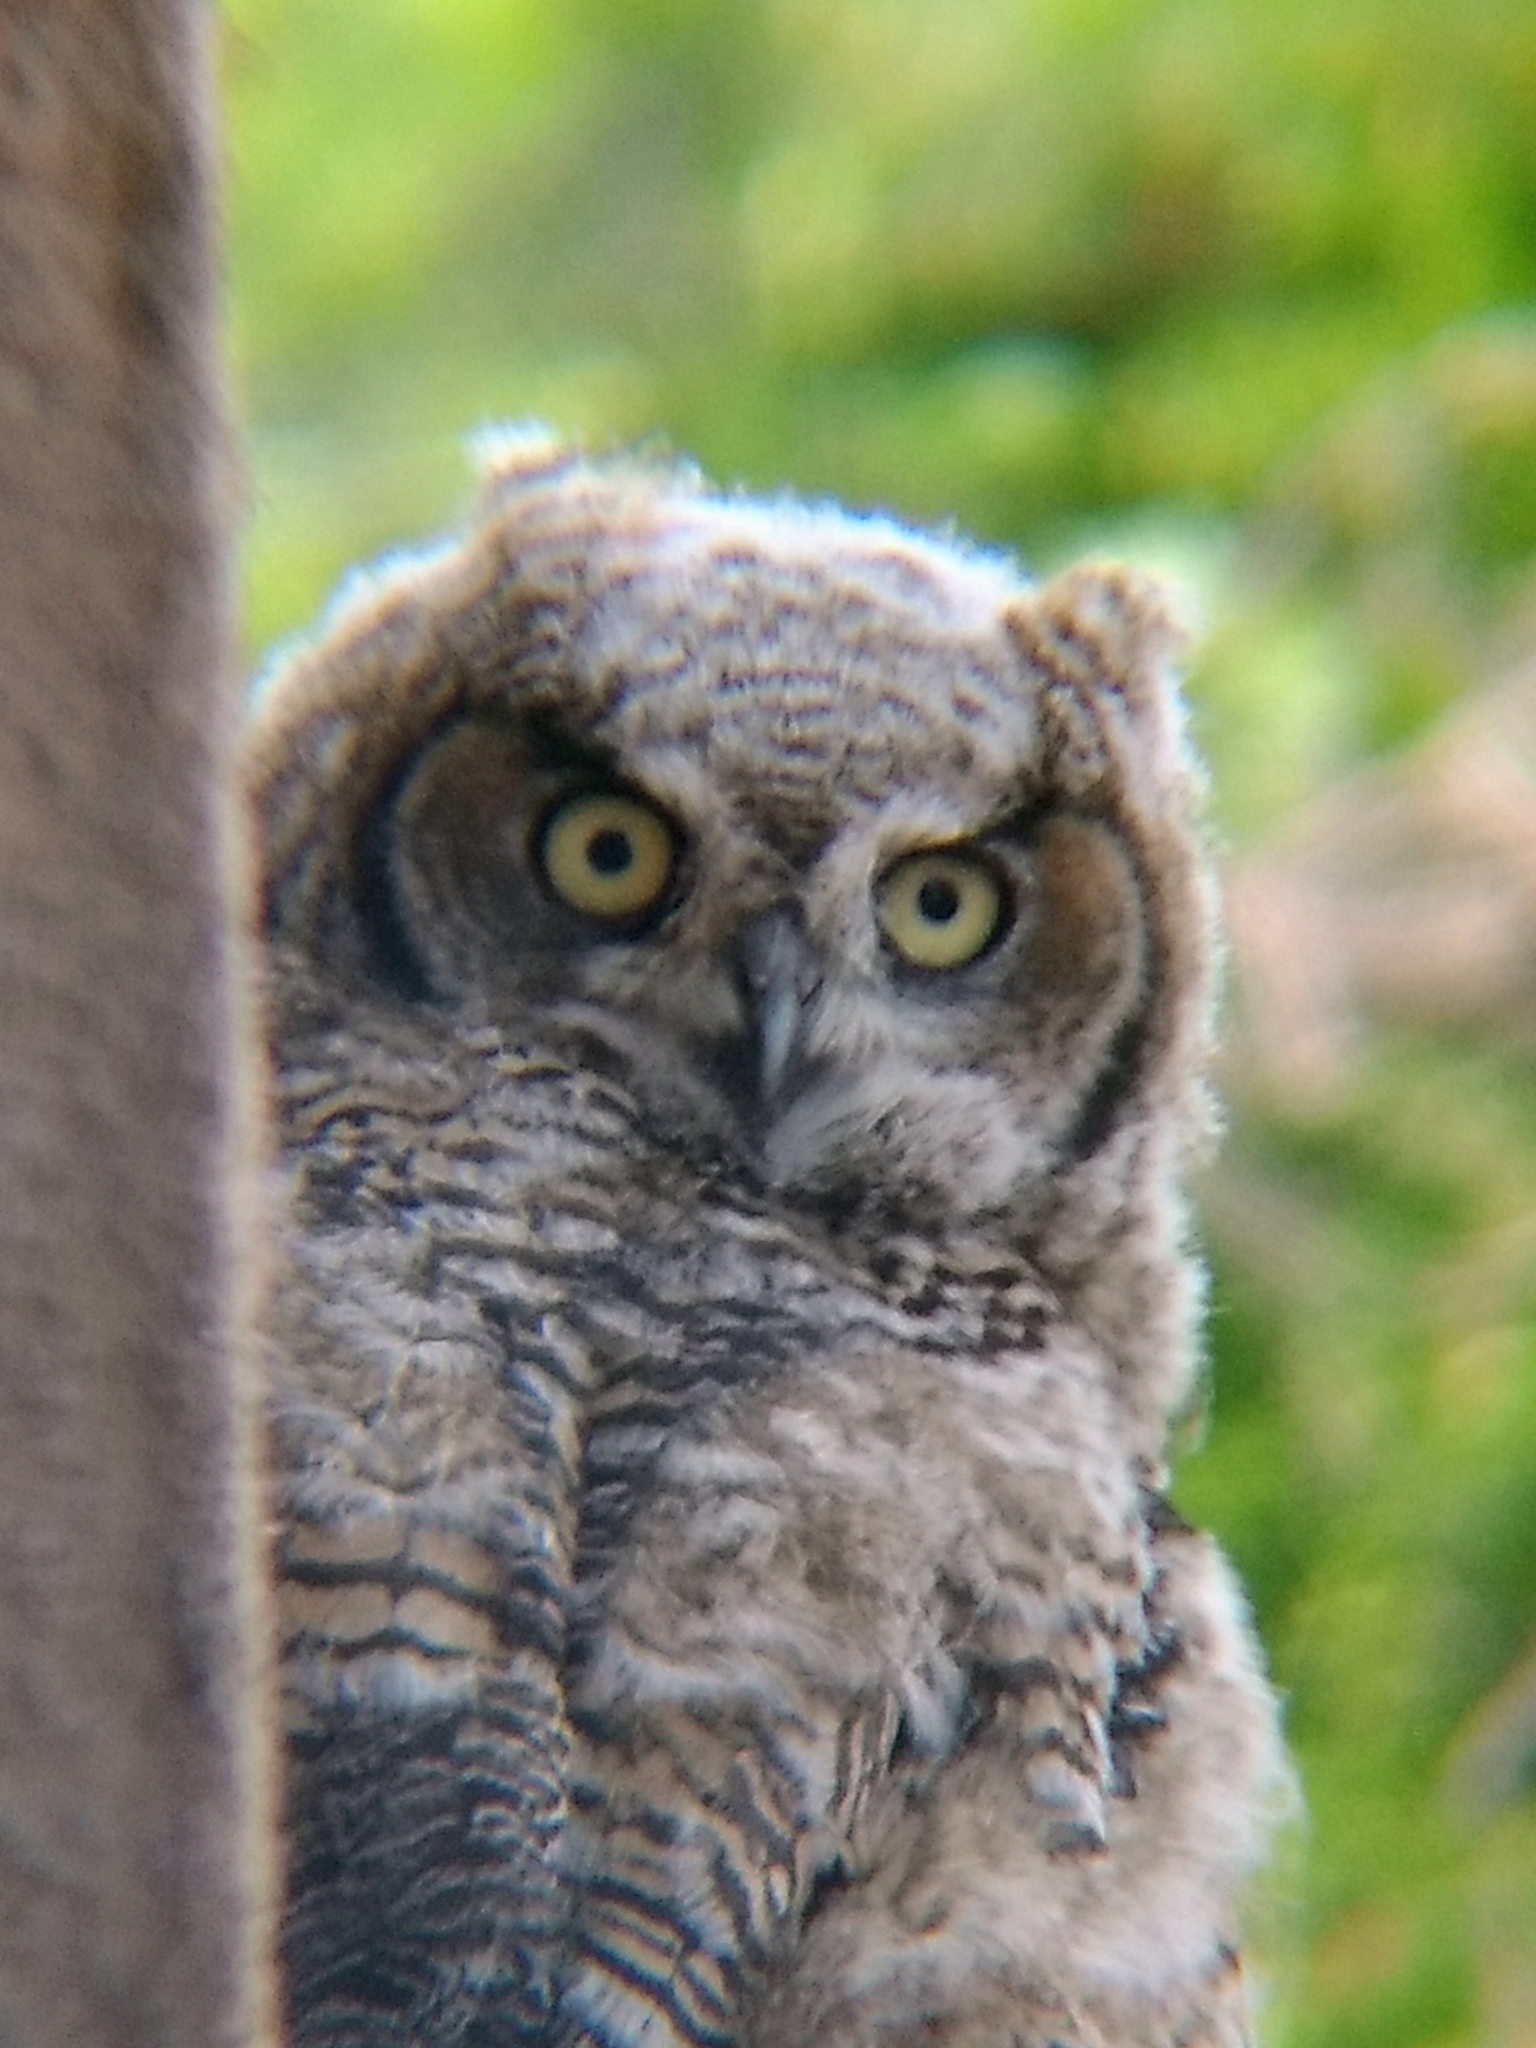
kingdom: Animalia
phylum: Chordata
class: Aves
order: Strigiformes
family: Strigidae
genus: Bubo
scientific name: Bubo virginianus
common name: Great horned owl
